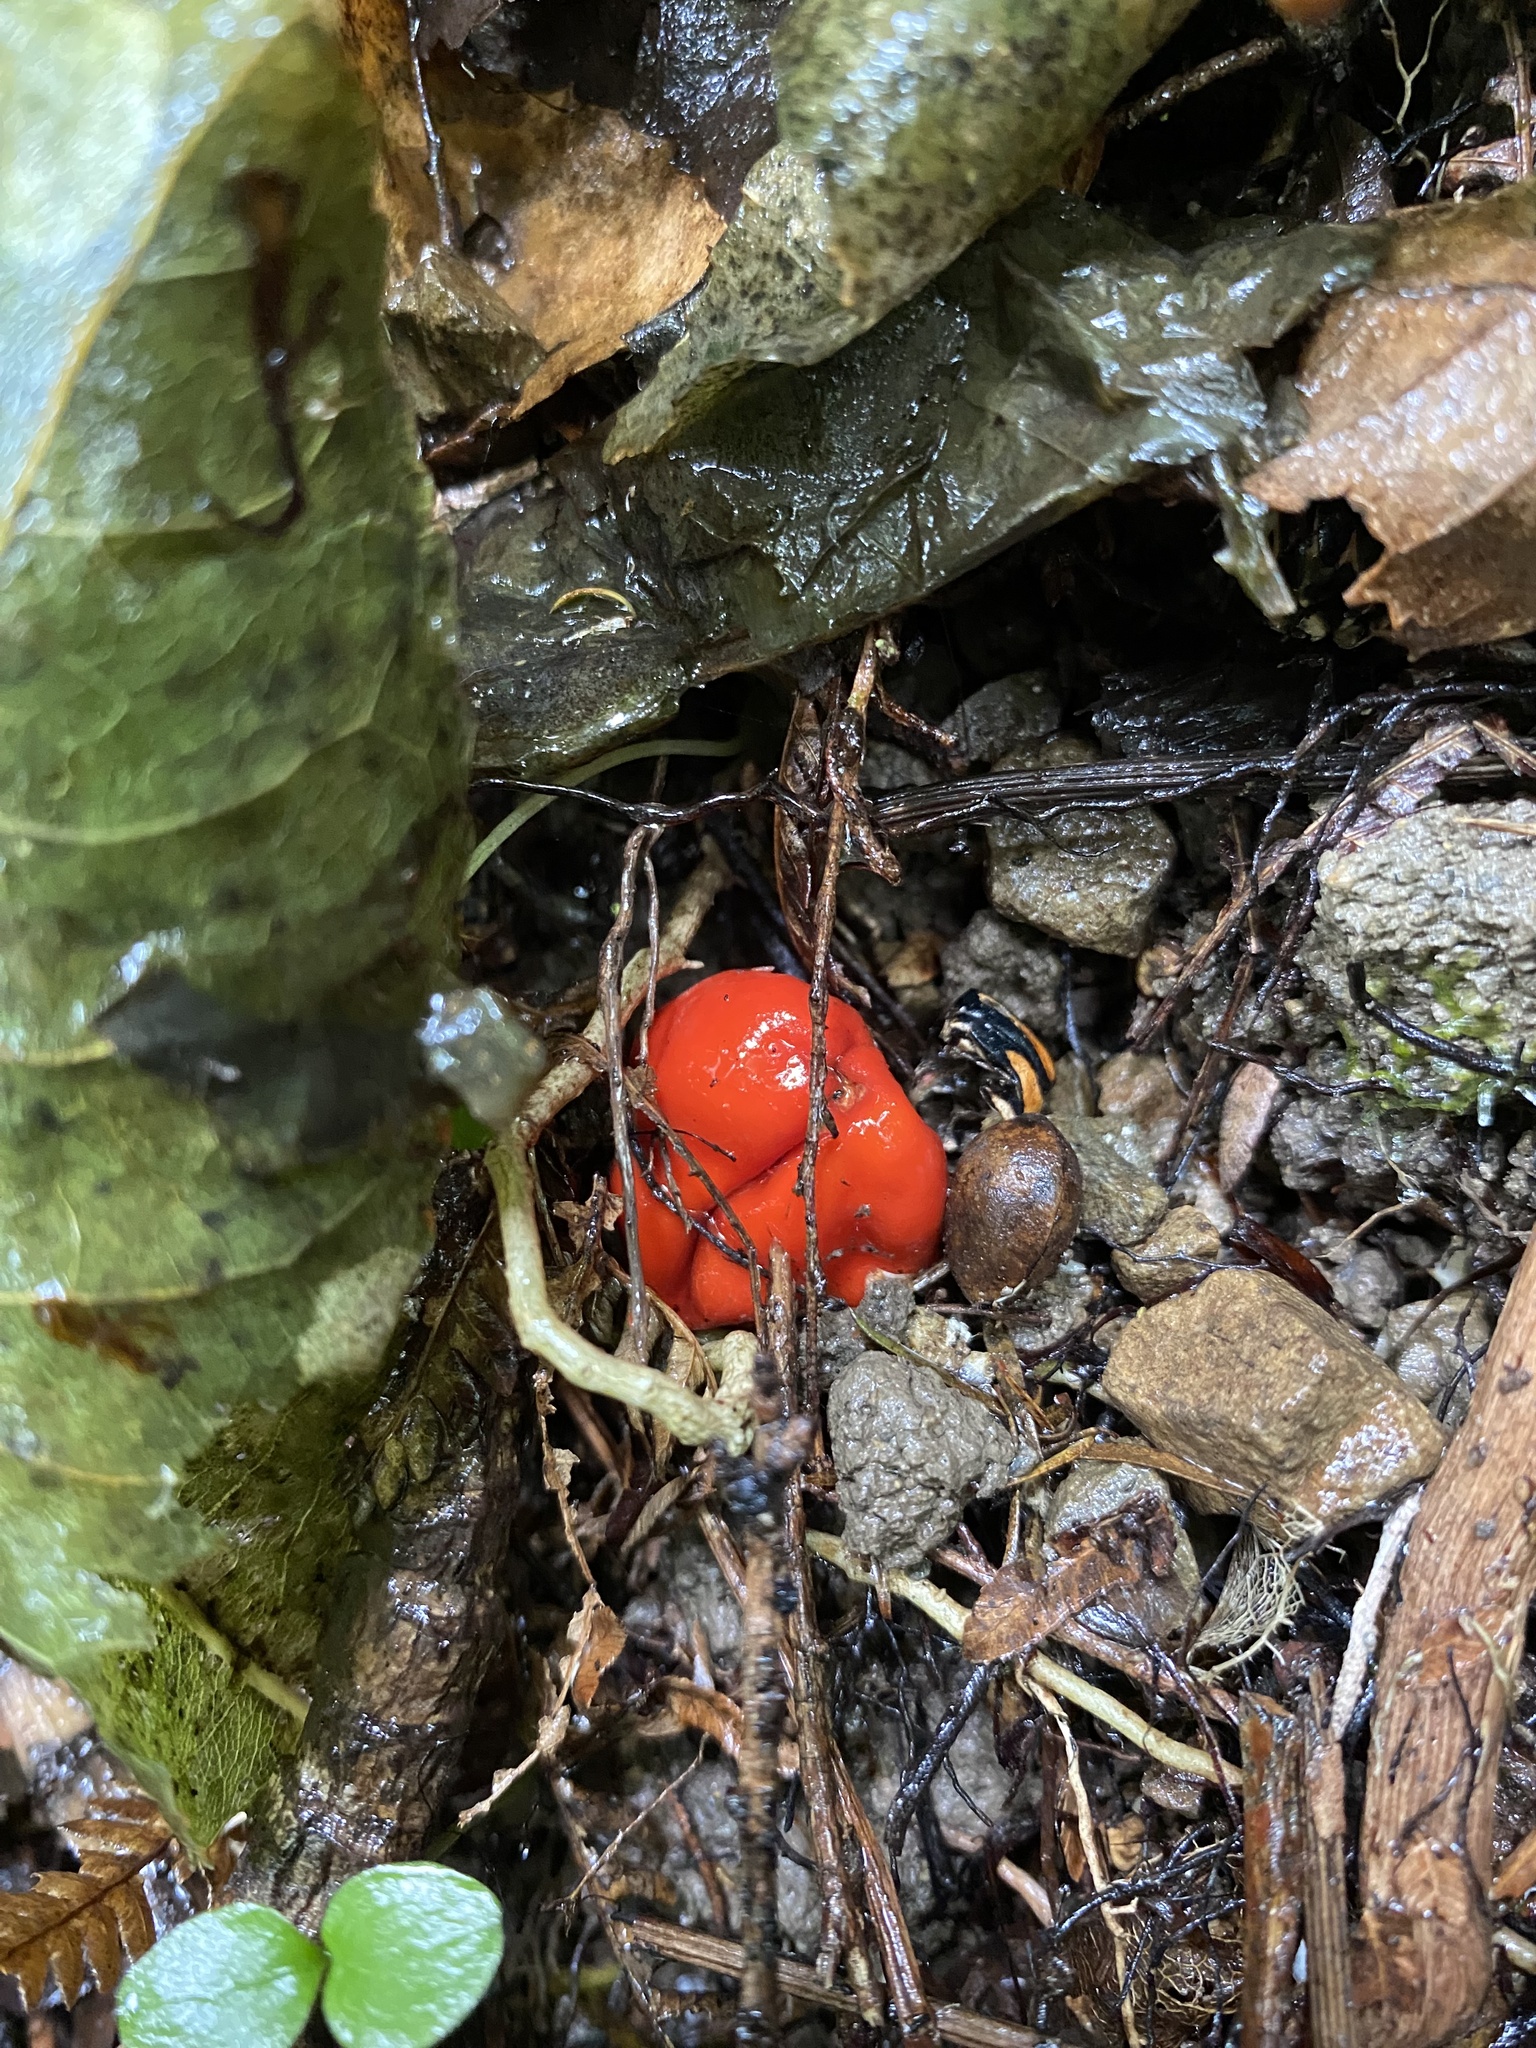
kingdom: Fungi
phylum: Ascomycota
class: Pezizomycetes
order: Pezizales
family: Pyronemataceae
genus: Paurocotylis
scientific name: Paurocotylis pila
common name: Scarlet berry truffle
